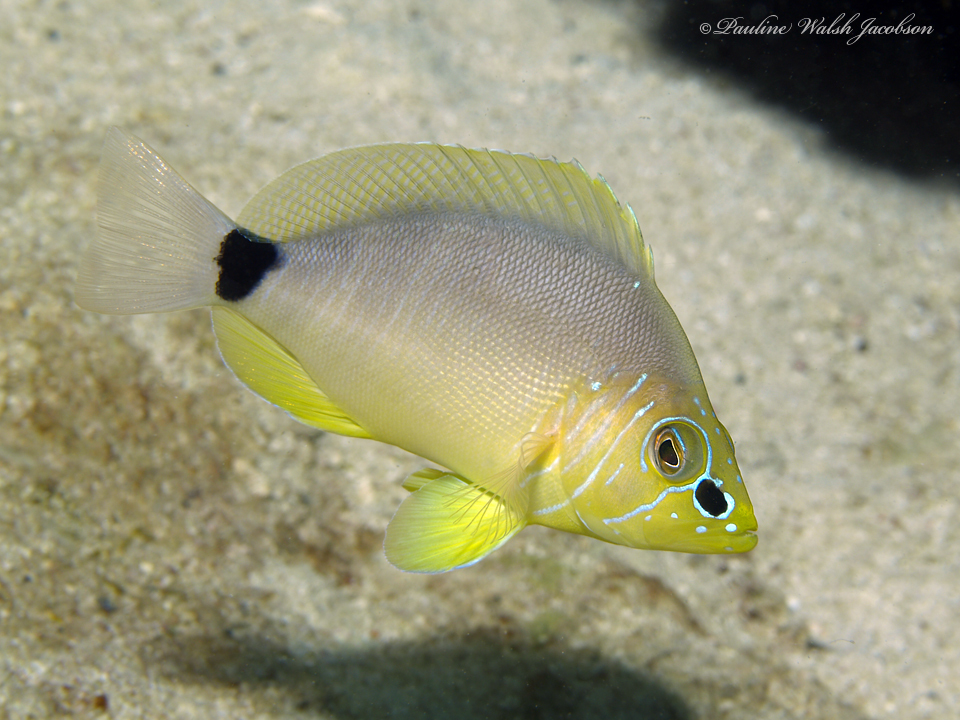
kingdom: Animalia
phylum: Chordata
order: Perciformes
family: Serranidae
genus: Hypoplectrus
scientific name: Hypoplectrus unicolor
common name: Butter hamlet
